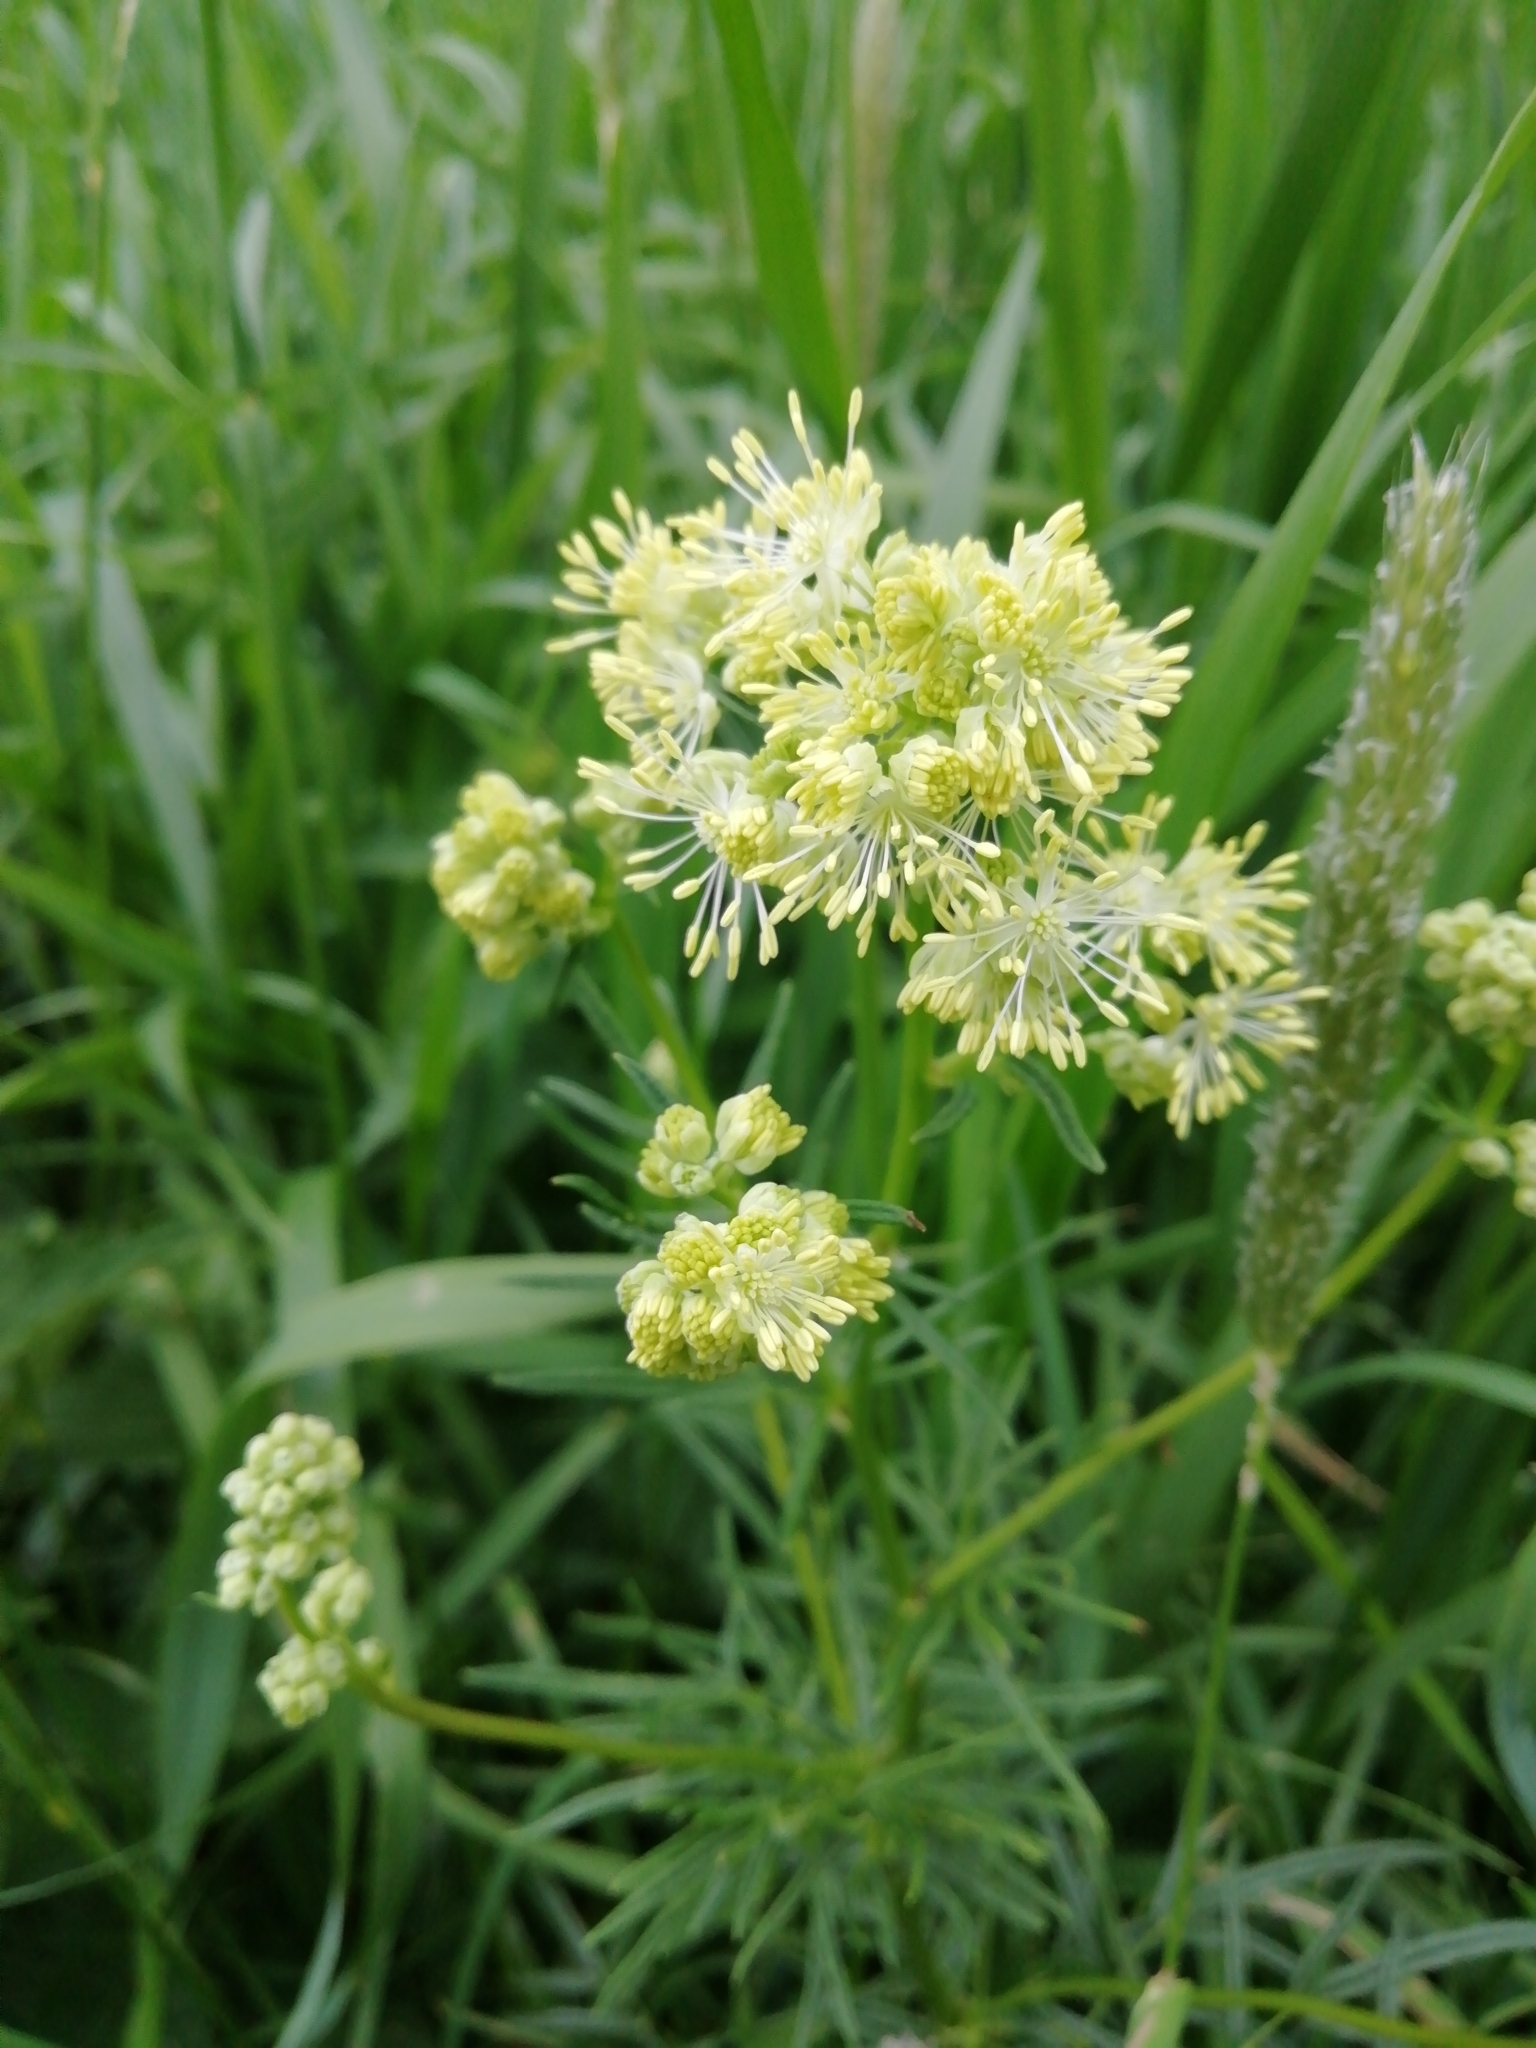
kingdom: Plantae
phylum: Tracheophyta
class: Magnoliopsida
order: Ranunculales
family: Ranunculaceae
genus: Thalictrum
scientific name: Thalictrum lucidum
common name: Shining meadow-rue
